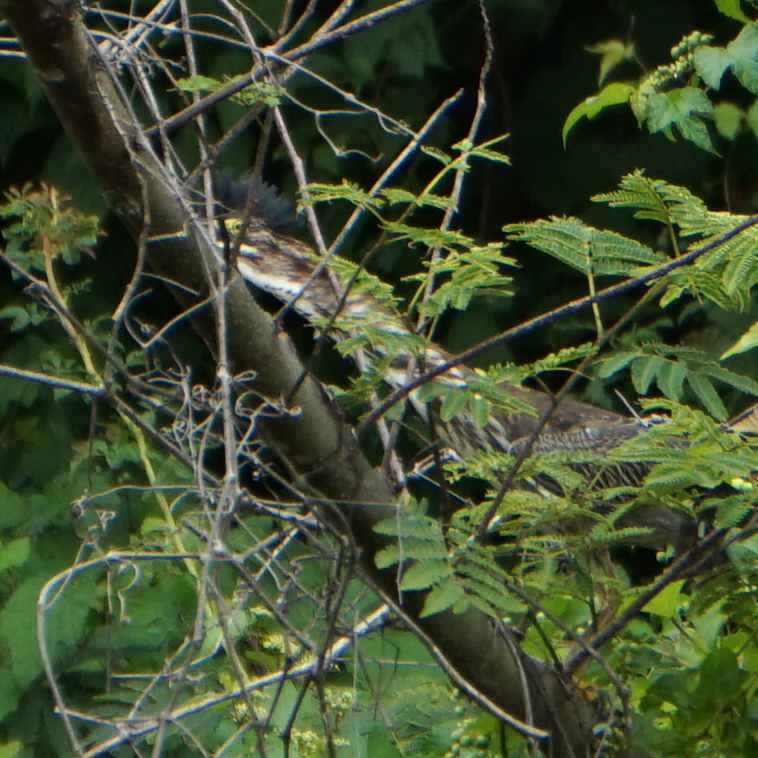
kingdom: Animalia
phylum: Chordata
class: Aves
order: Pelecaniformes
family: Ardeidae
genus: Butorides
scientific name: Butorides virescens
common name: Green heron
